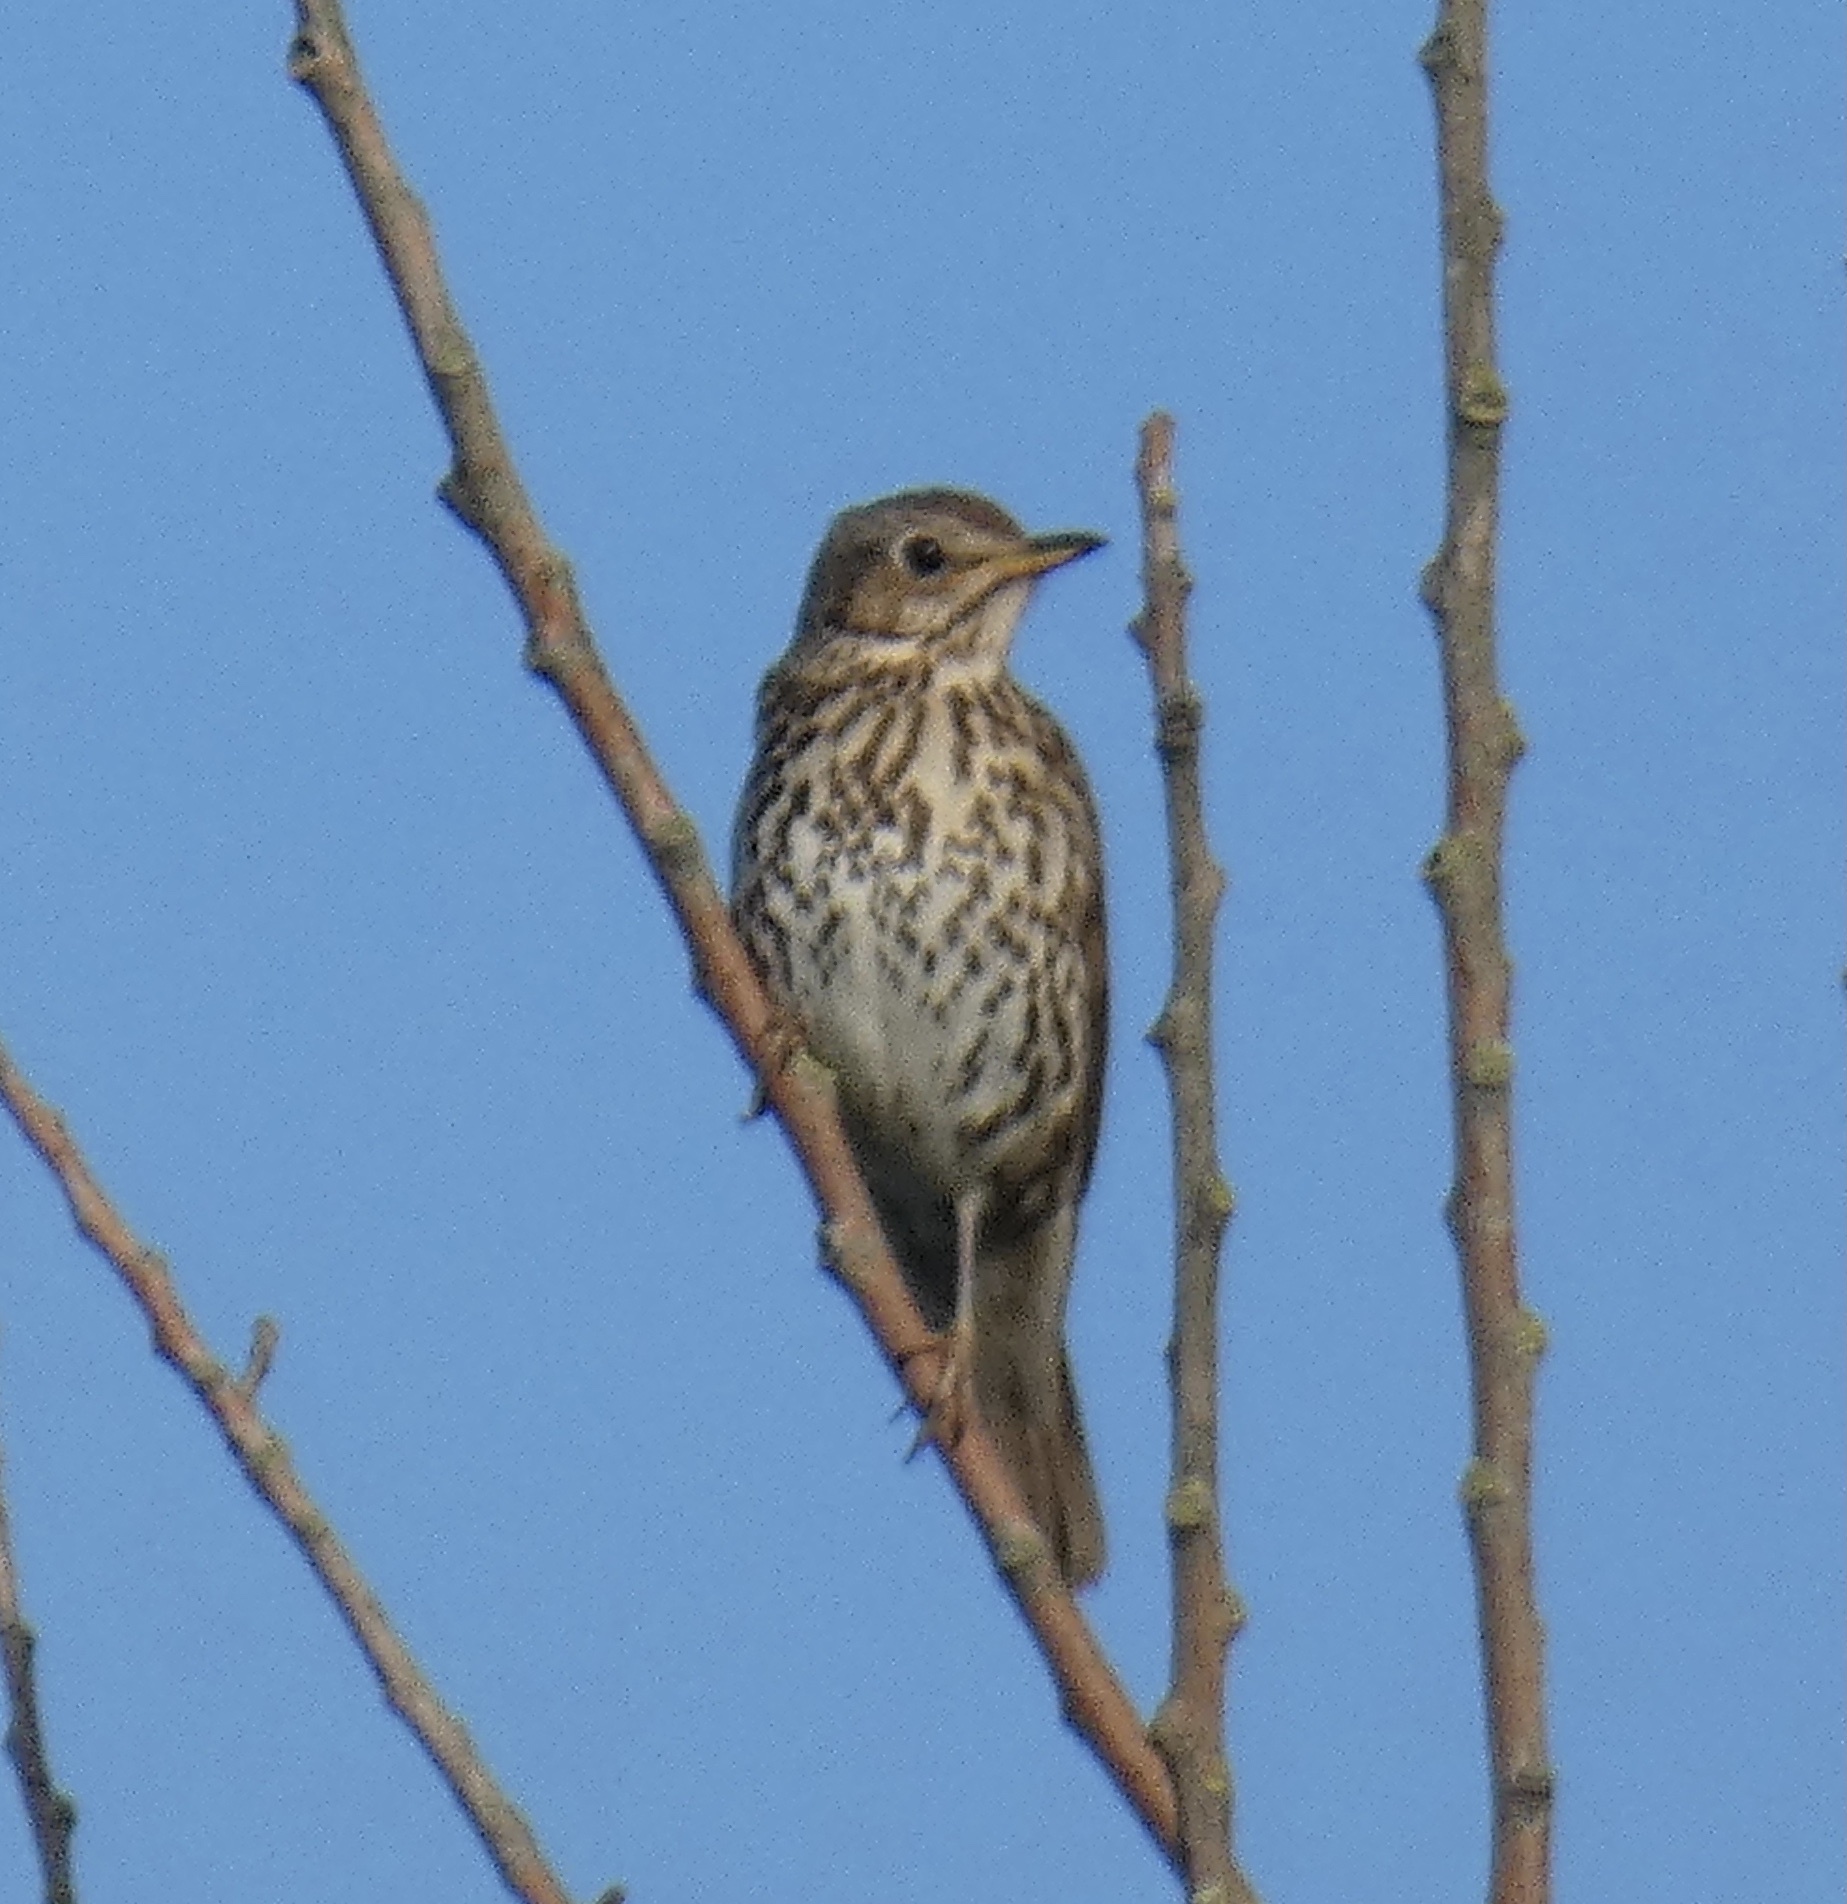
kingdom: Animalia
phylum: Chordata
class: Aves
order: Passeriformes
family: Turdidae
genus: Turdus
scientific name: Turdus philomelos
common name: Song thrush
